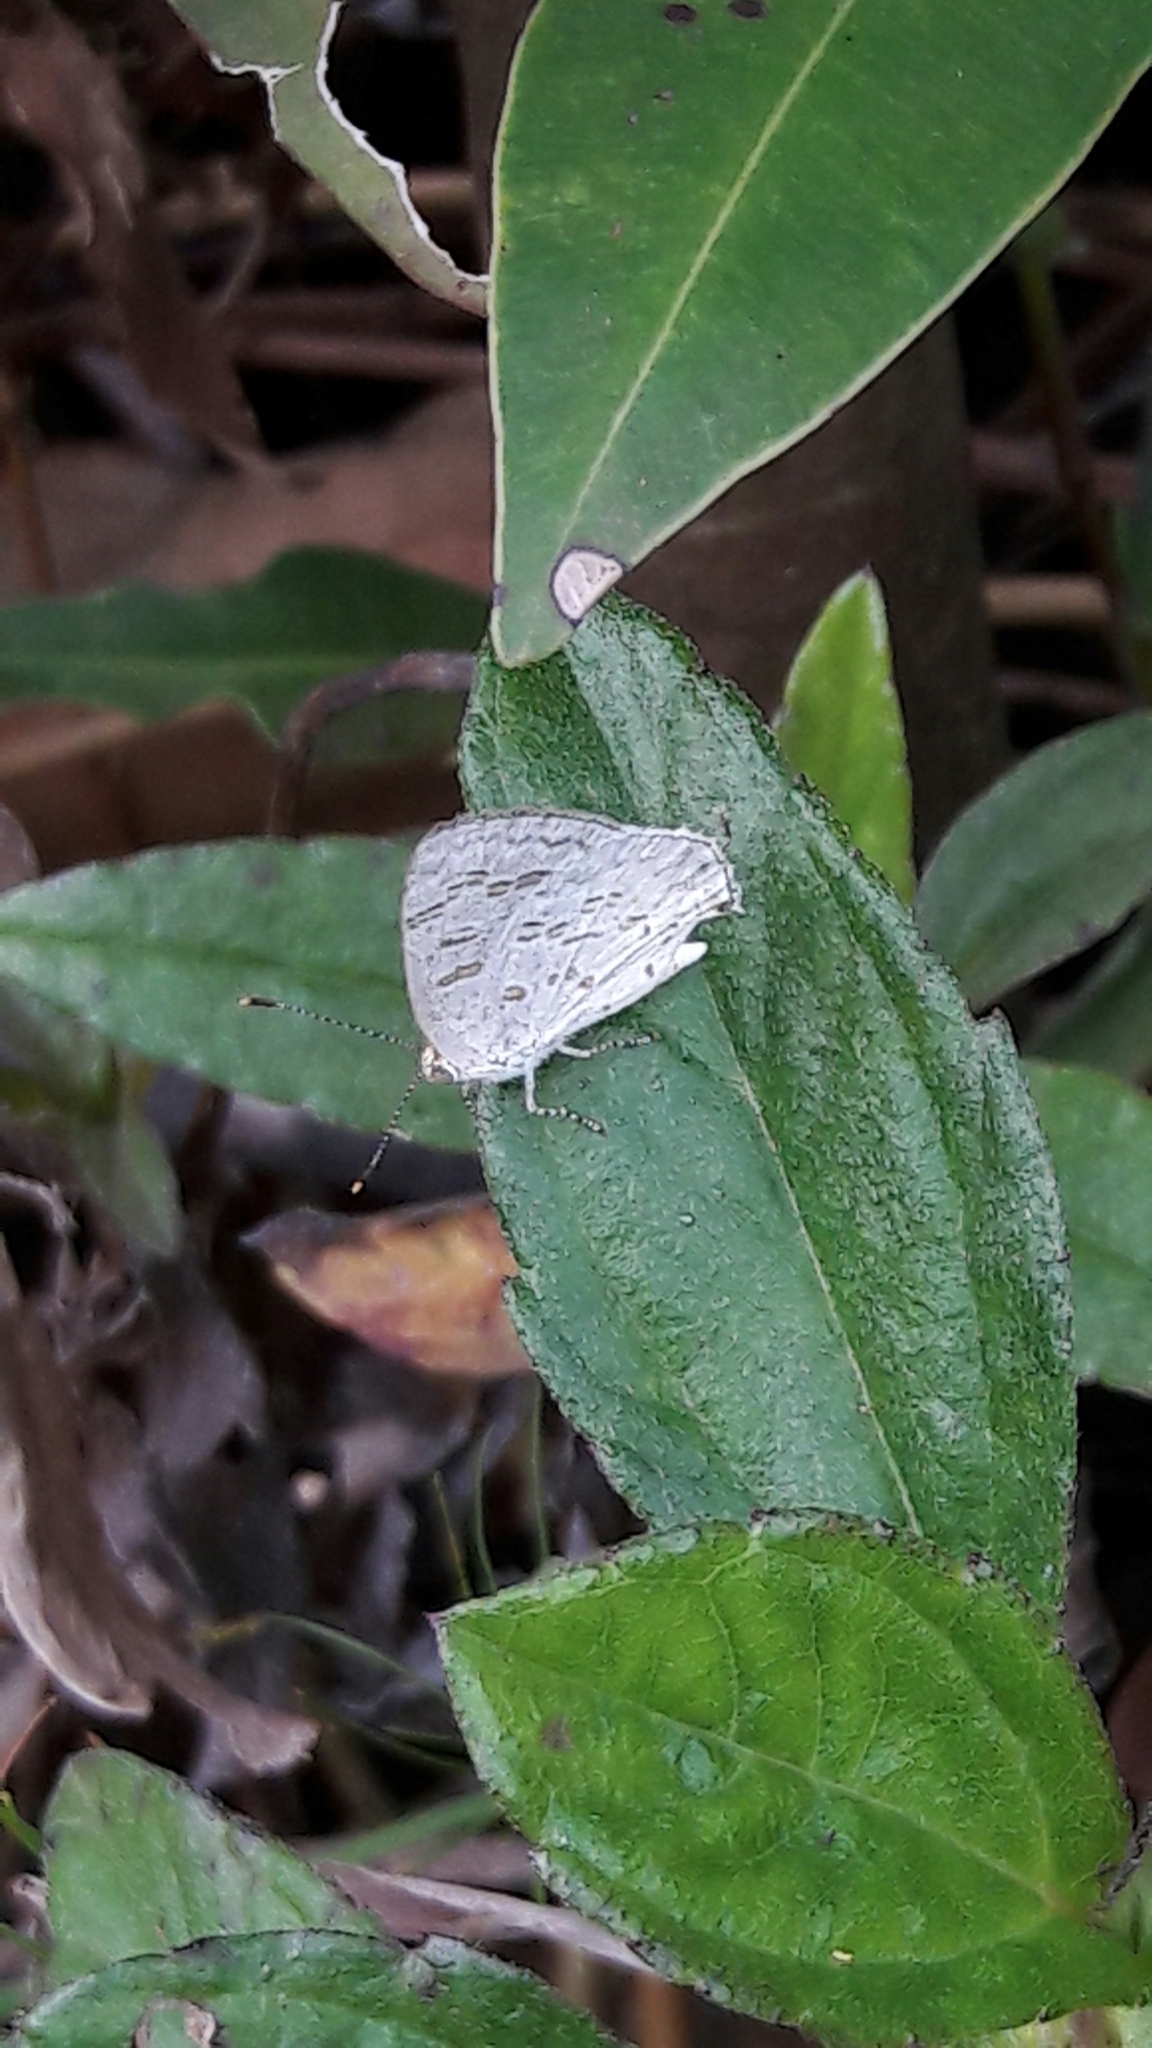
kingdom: Animalia
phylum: Arthropoda
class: Insecta
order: Lepidoptera
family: Lycaenidae
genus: Thecla
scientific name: Thecla una
